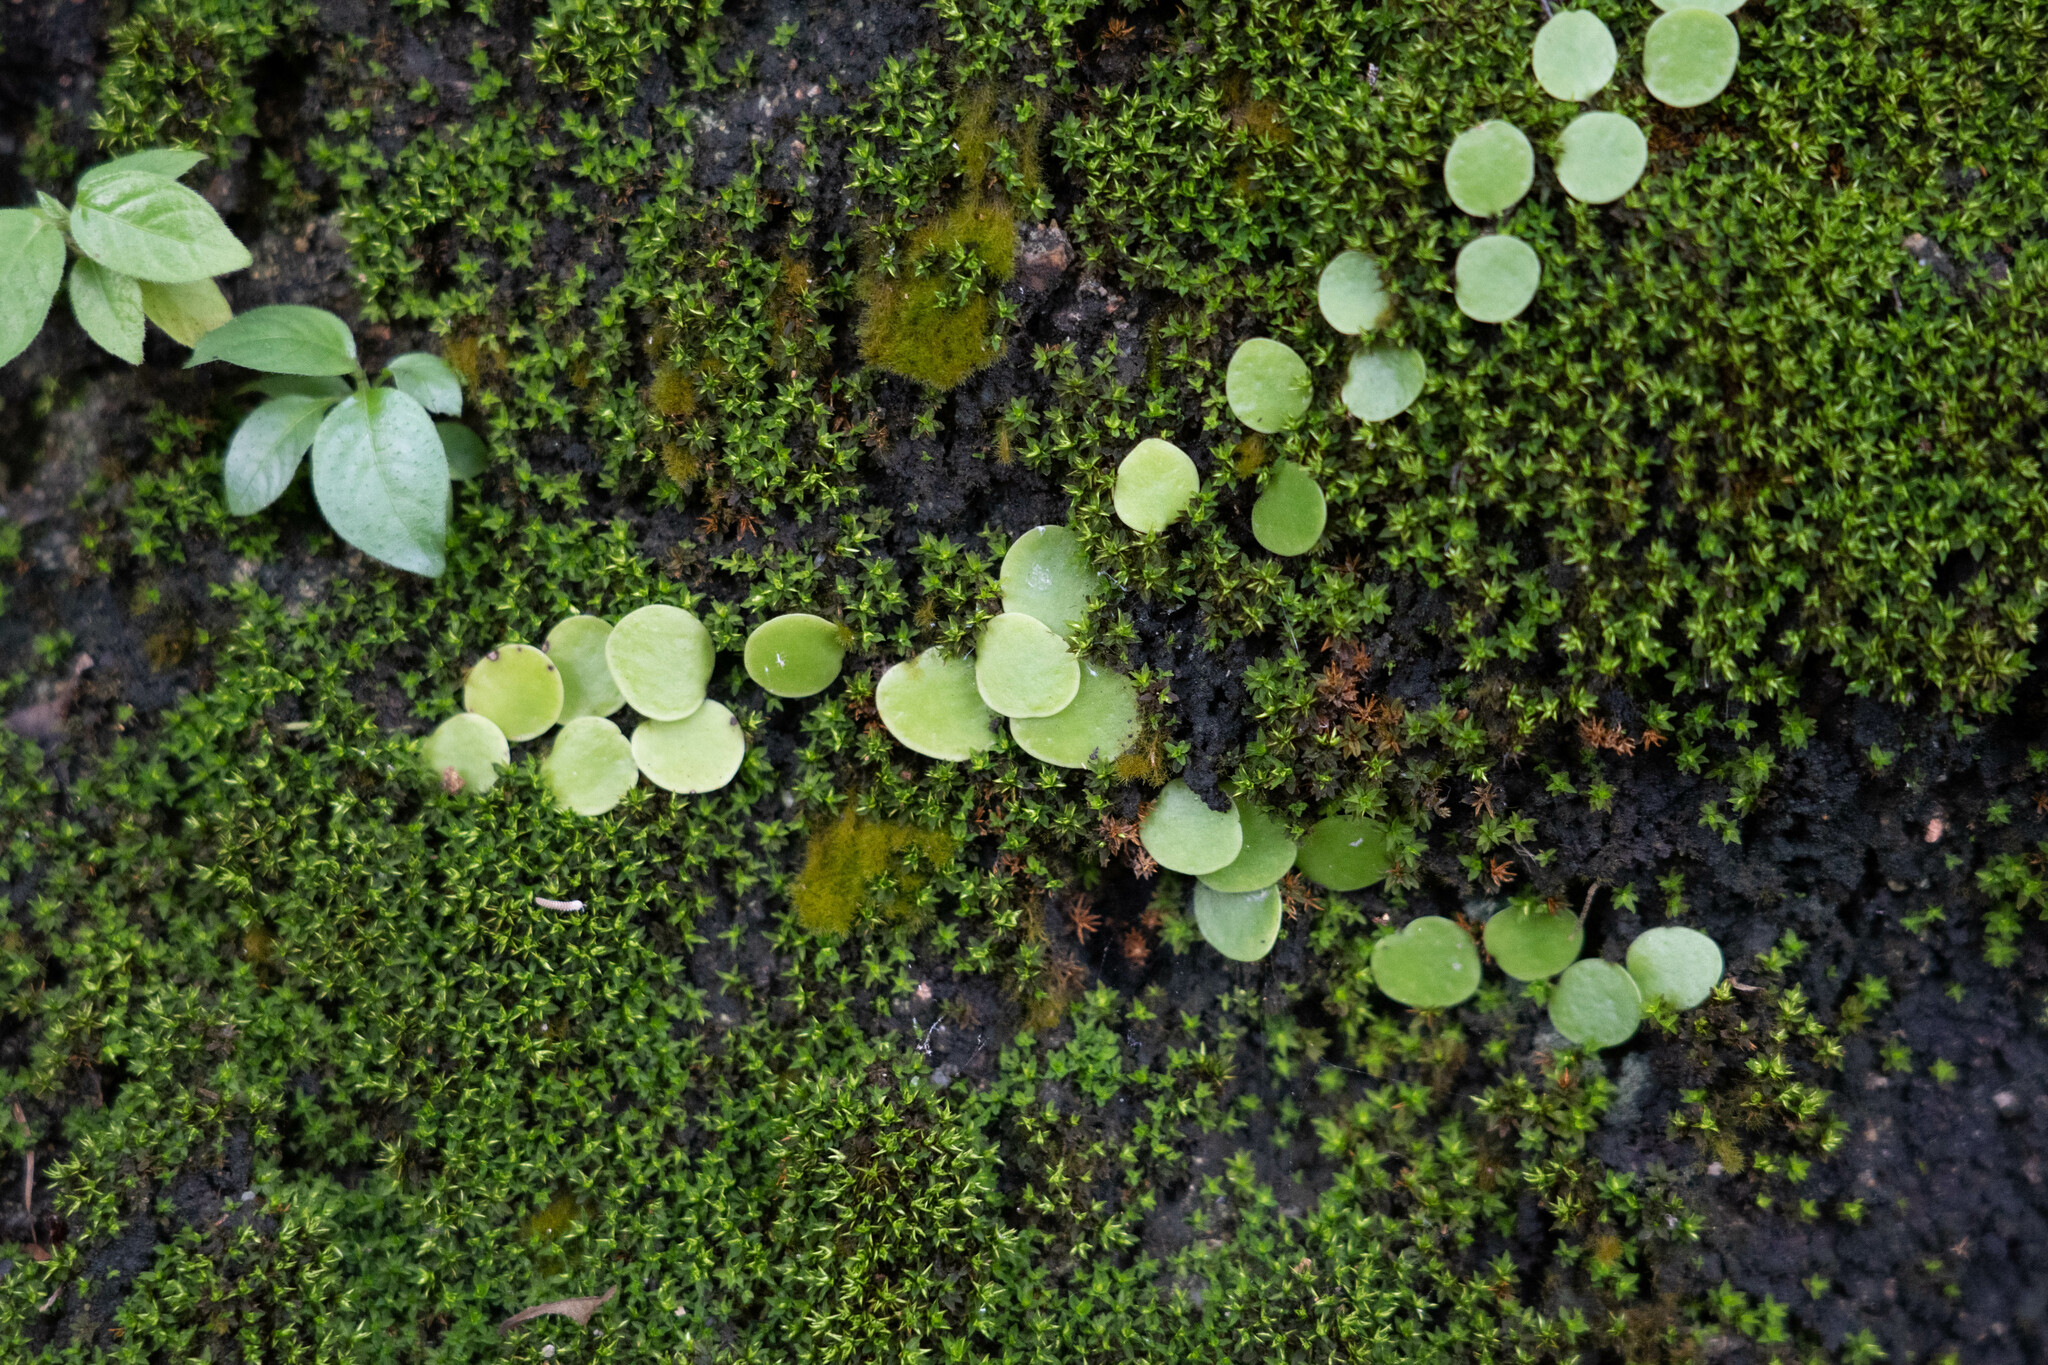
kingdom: Plantae
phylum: Tracheophyta
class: Polypodiopsida
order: Polypodiales
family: Polypodiaceae
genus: Lepisorus
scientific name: Lepisorus microphyllus
